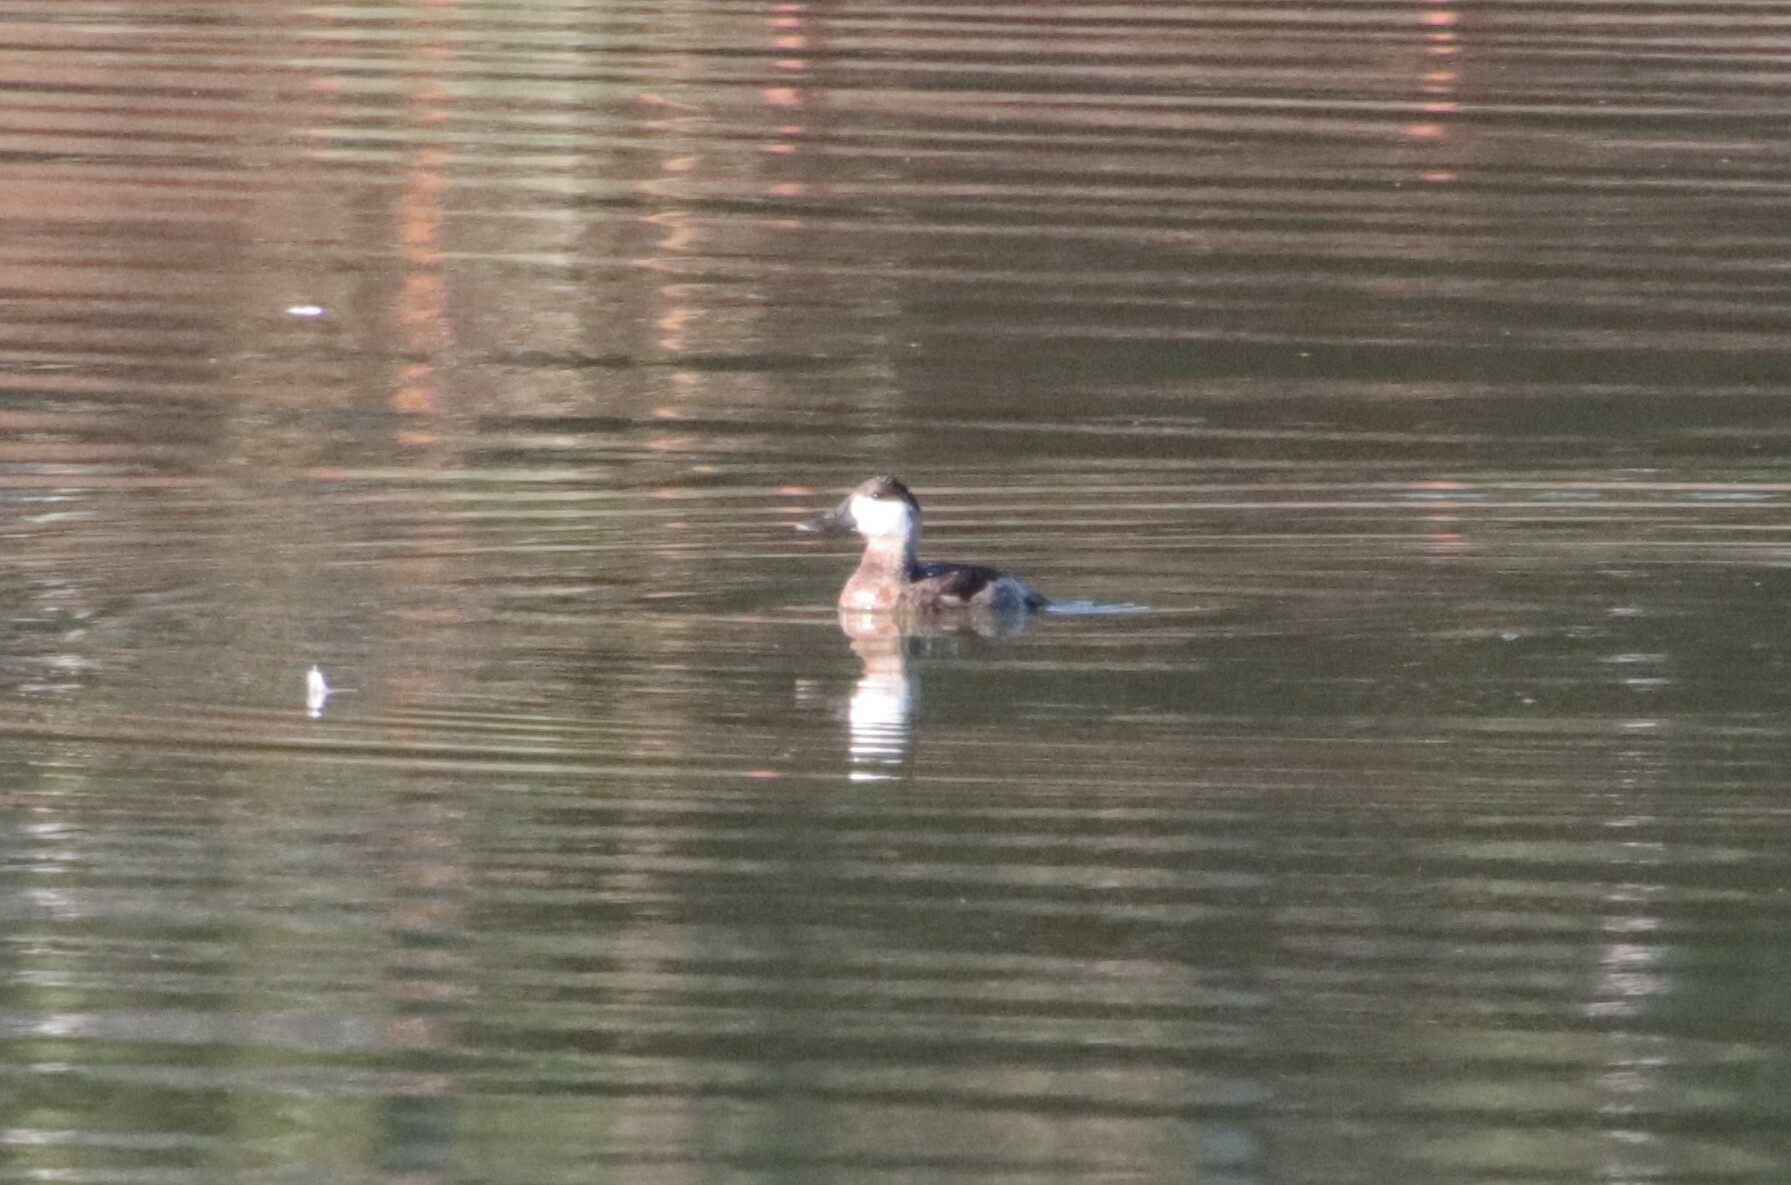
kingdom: Animalia
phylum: Chordata
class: Aves
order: Anseriformes
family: Anatidae
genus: Oxyura
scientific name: Oxyura jamaicensis
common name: Ruddy duck
